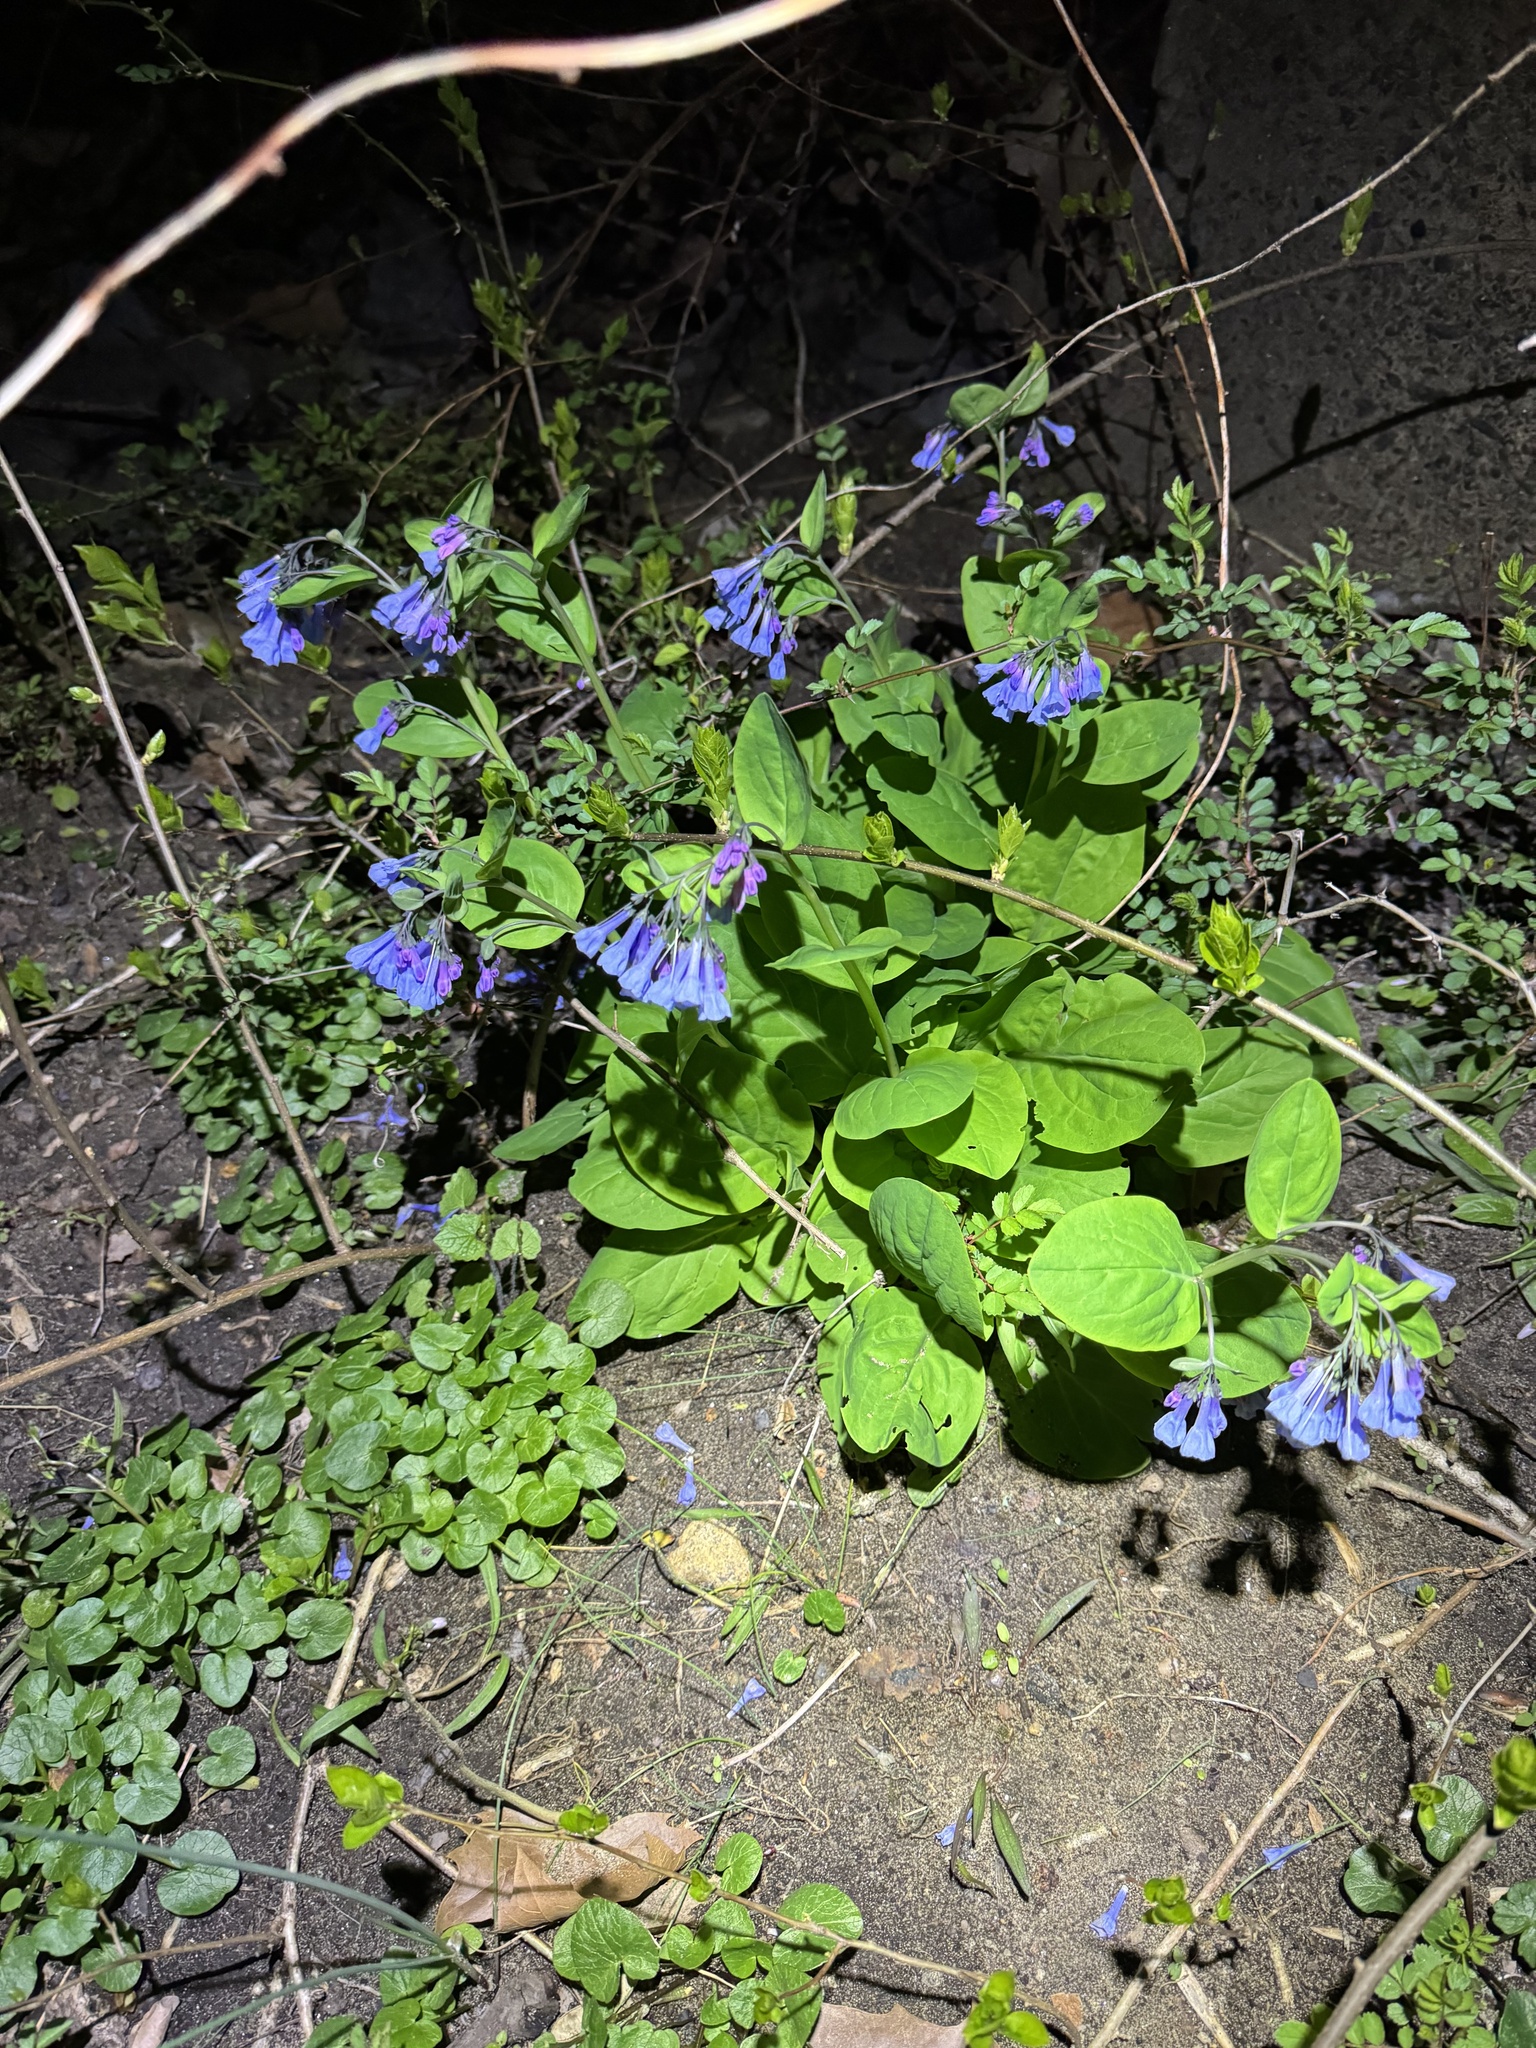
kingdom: Plantae
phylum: Tracheophyta
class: Magnoliopsida
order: Boraginales
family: Boraginaceae
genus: Mertensia
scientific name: Mertensia virginica
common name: Virginia bluebells
